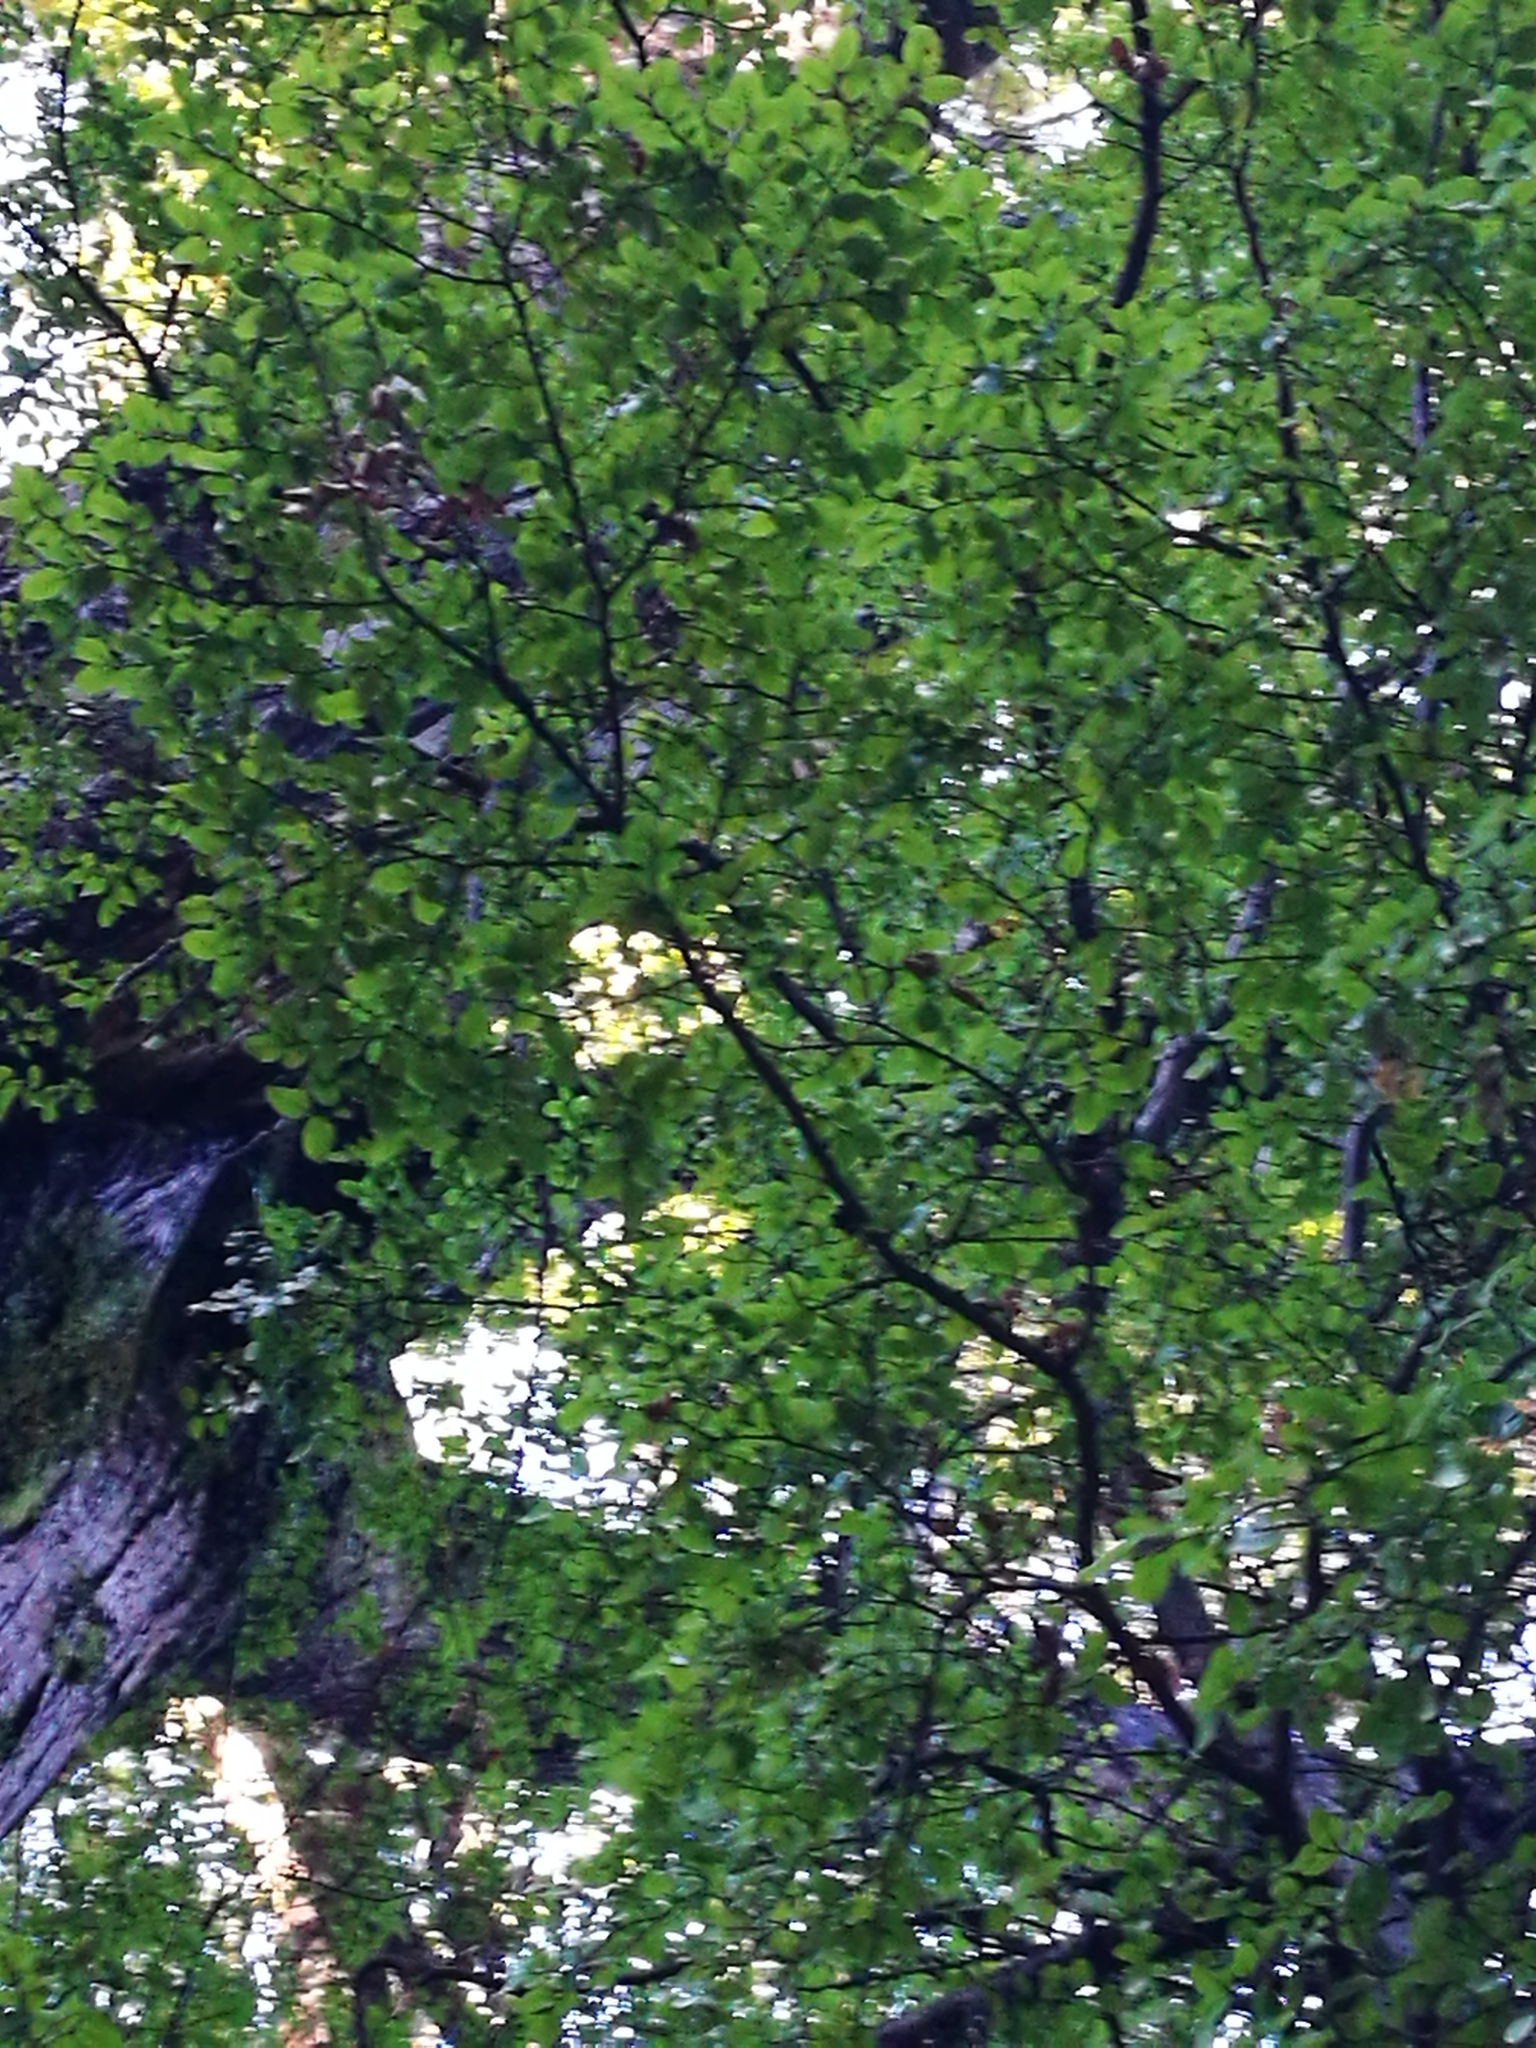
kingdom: Plantae
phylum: Tracheophyta
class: Magnoliopsida
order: Fagales
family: Nothofagaceae
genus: Nothofagus
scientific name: Nothofagus cliffortioides
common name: Mountain beech
